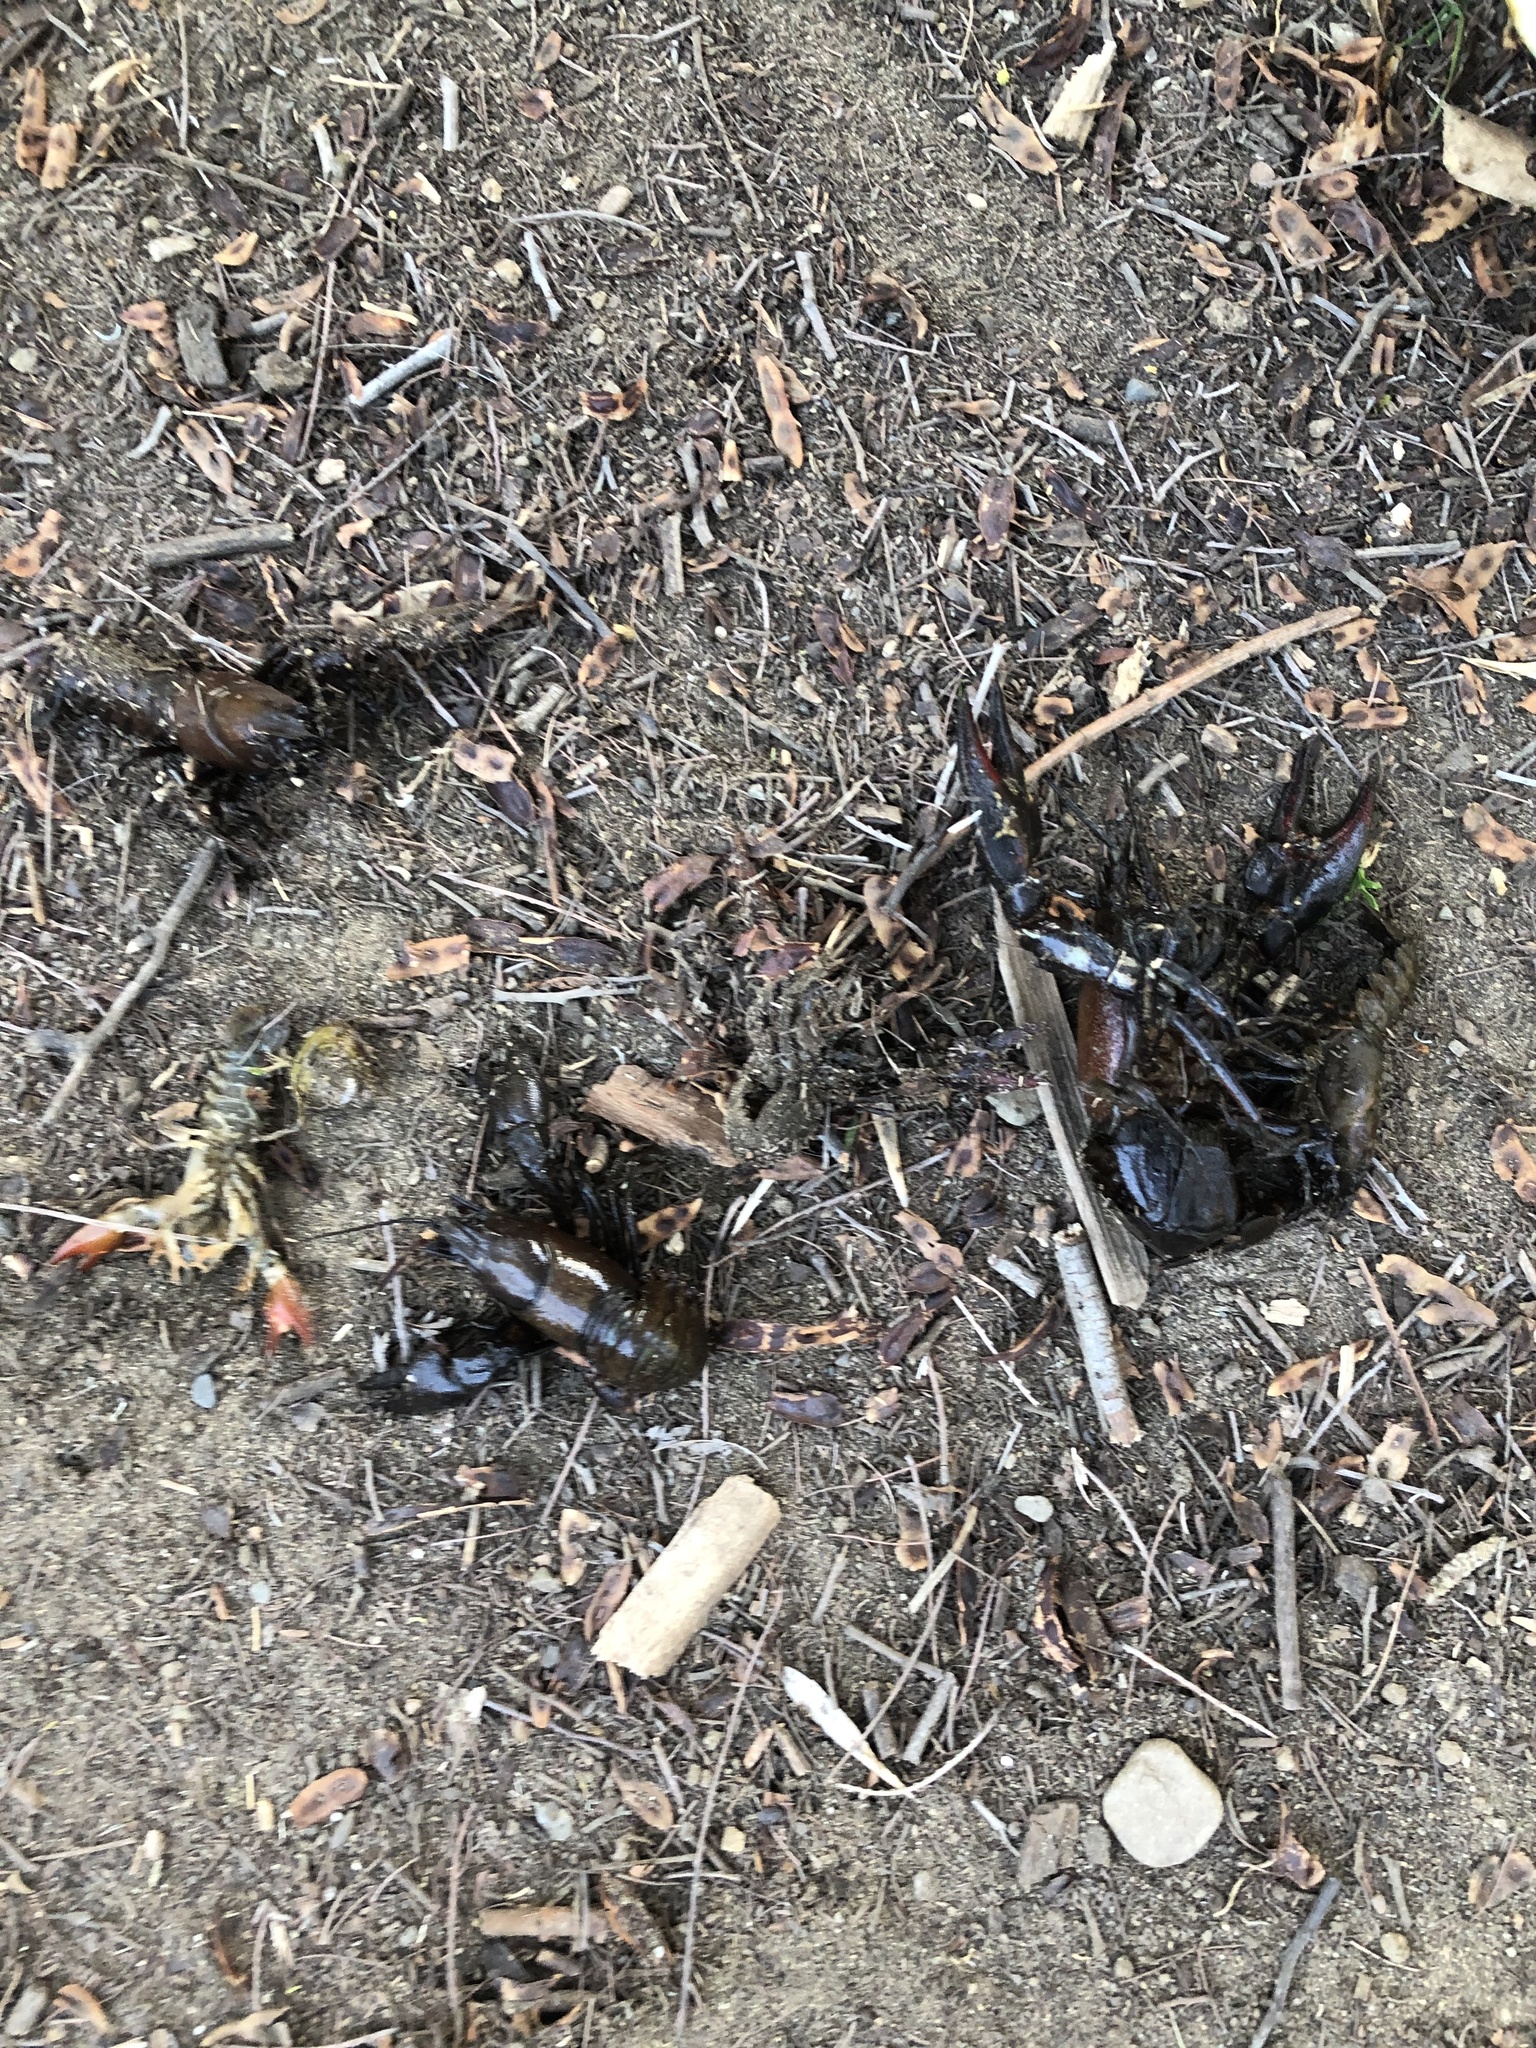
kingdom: Animalia
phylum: Arthropoda
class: Malacostraca
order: Decapoda
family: Astacidae
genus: Pacifastacus
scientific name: Pacifastacus leniusculus
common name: Signal crayfish
